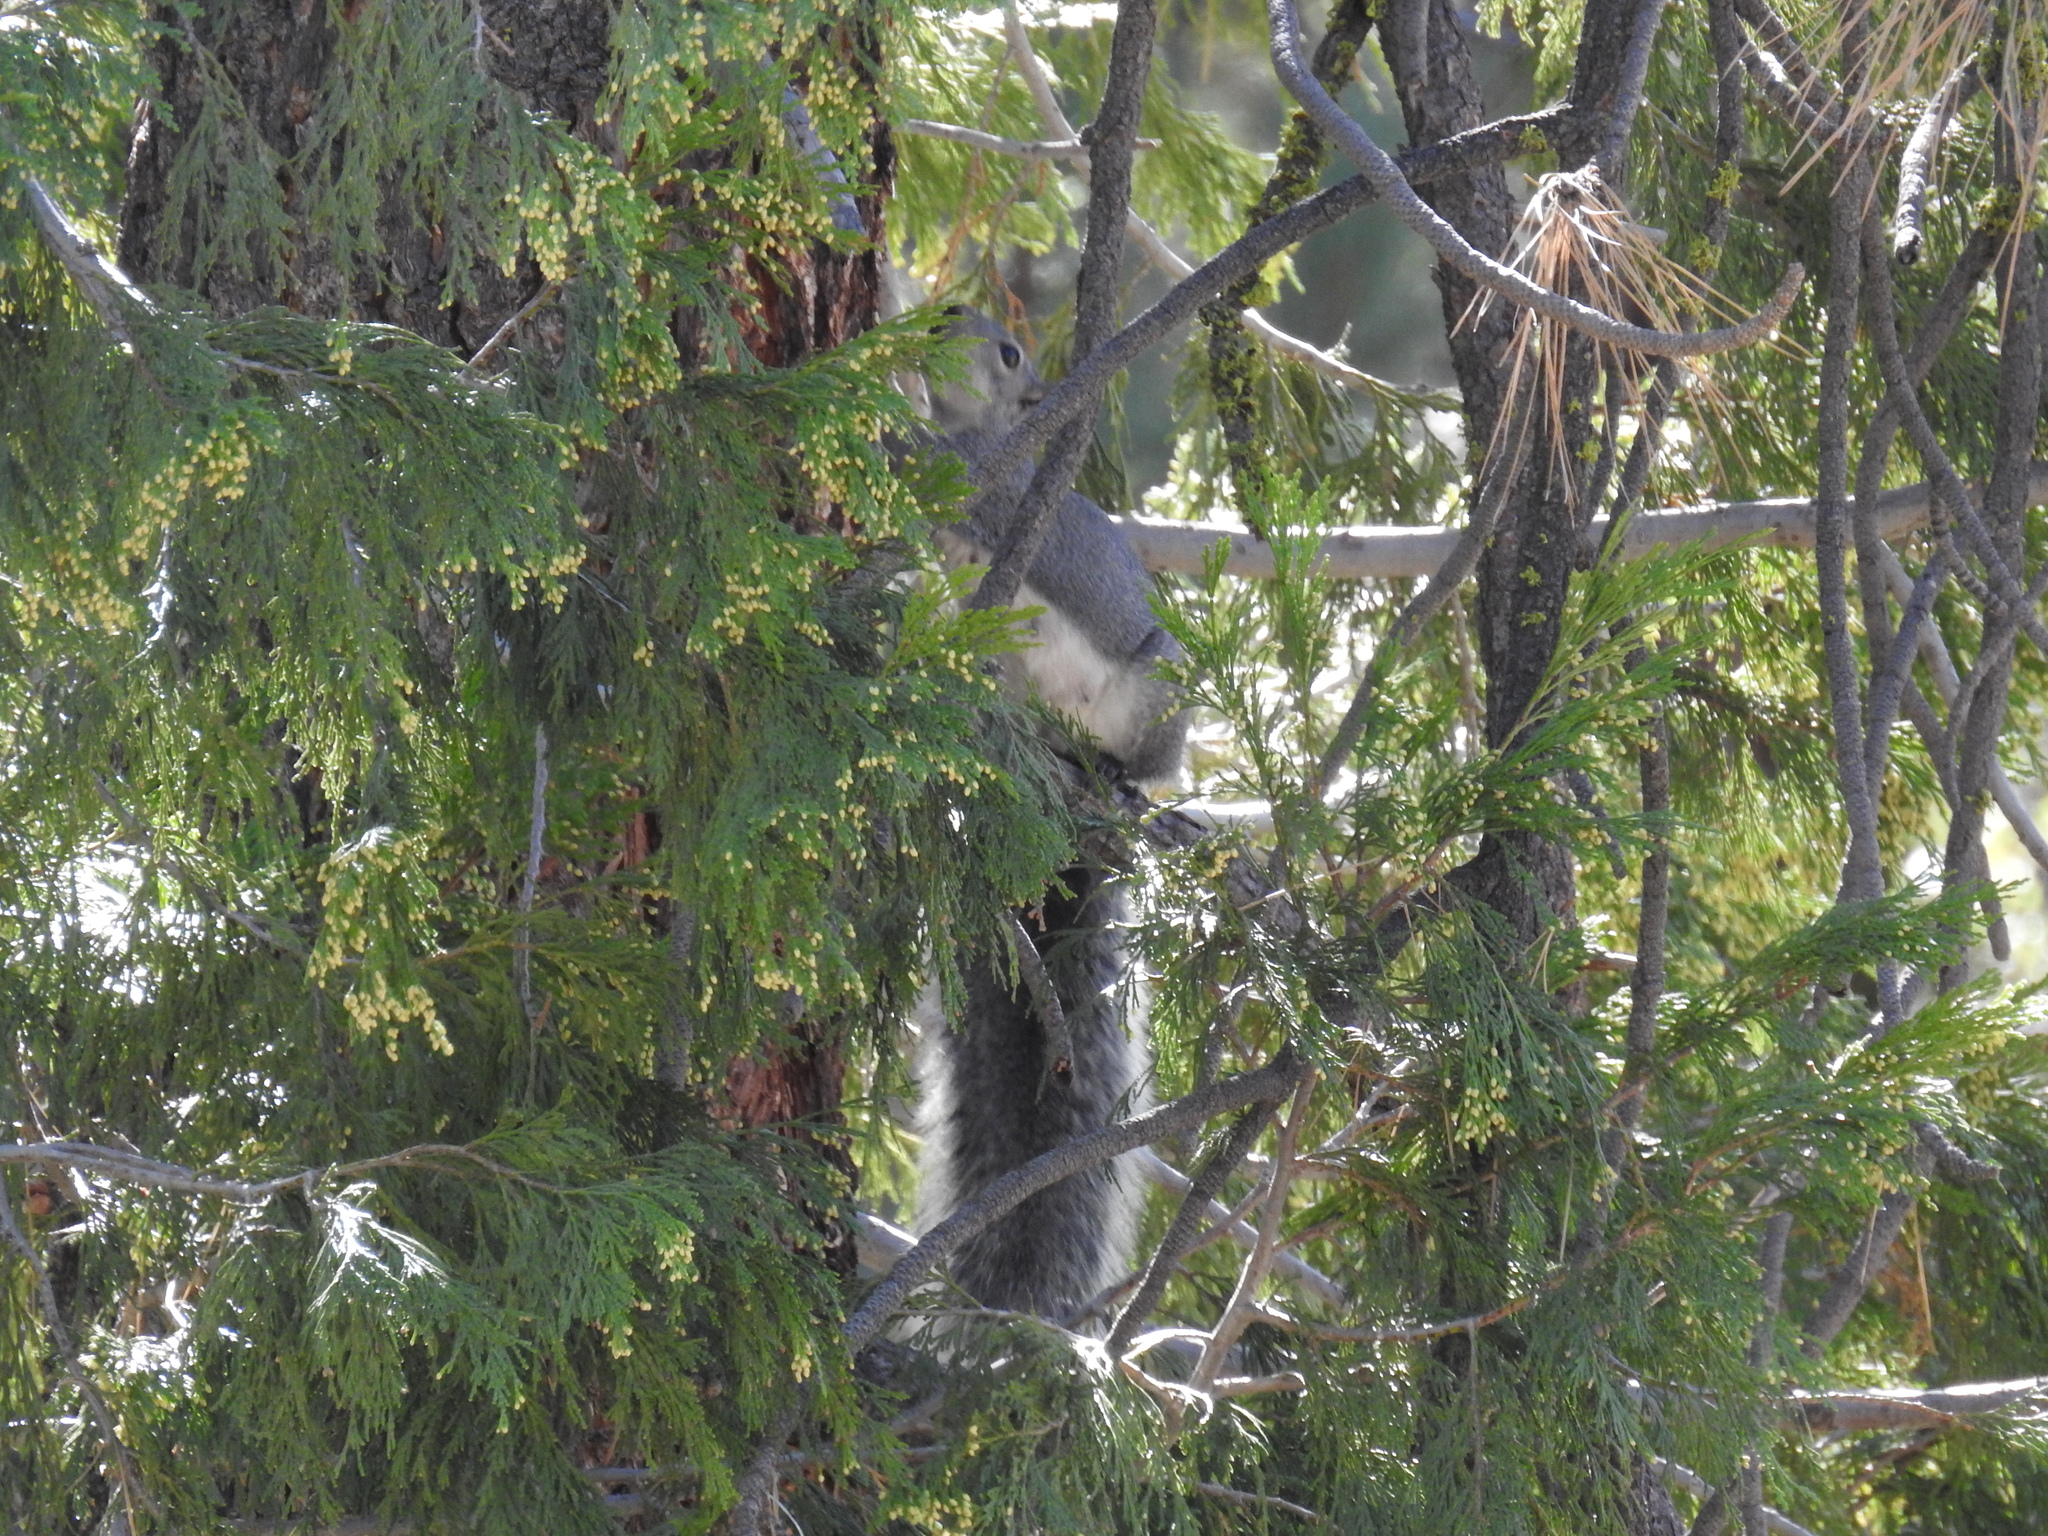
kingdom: Animalia
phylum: Chordata
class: Mammalia
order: Rodentia
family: Sciuridae
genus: Sciurus
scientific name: Sciurus griseus
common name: Western gray squirrel
